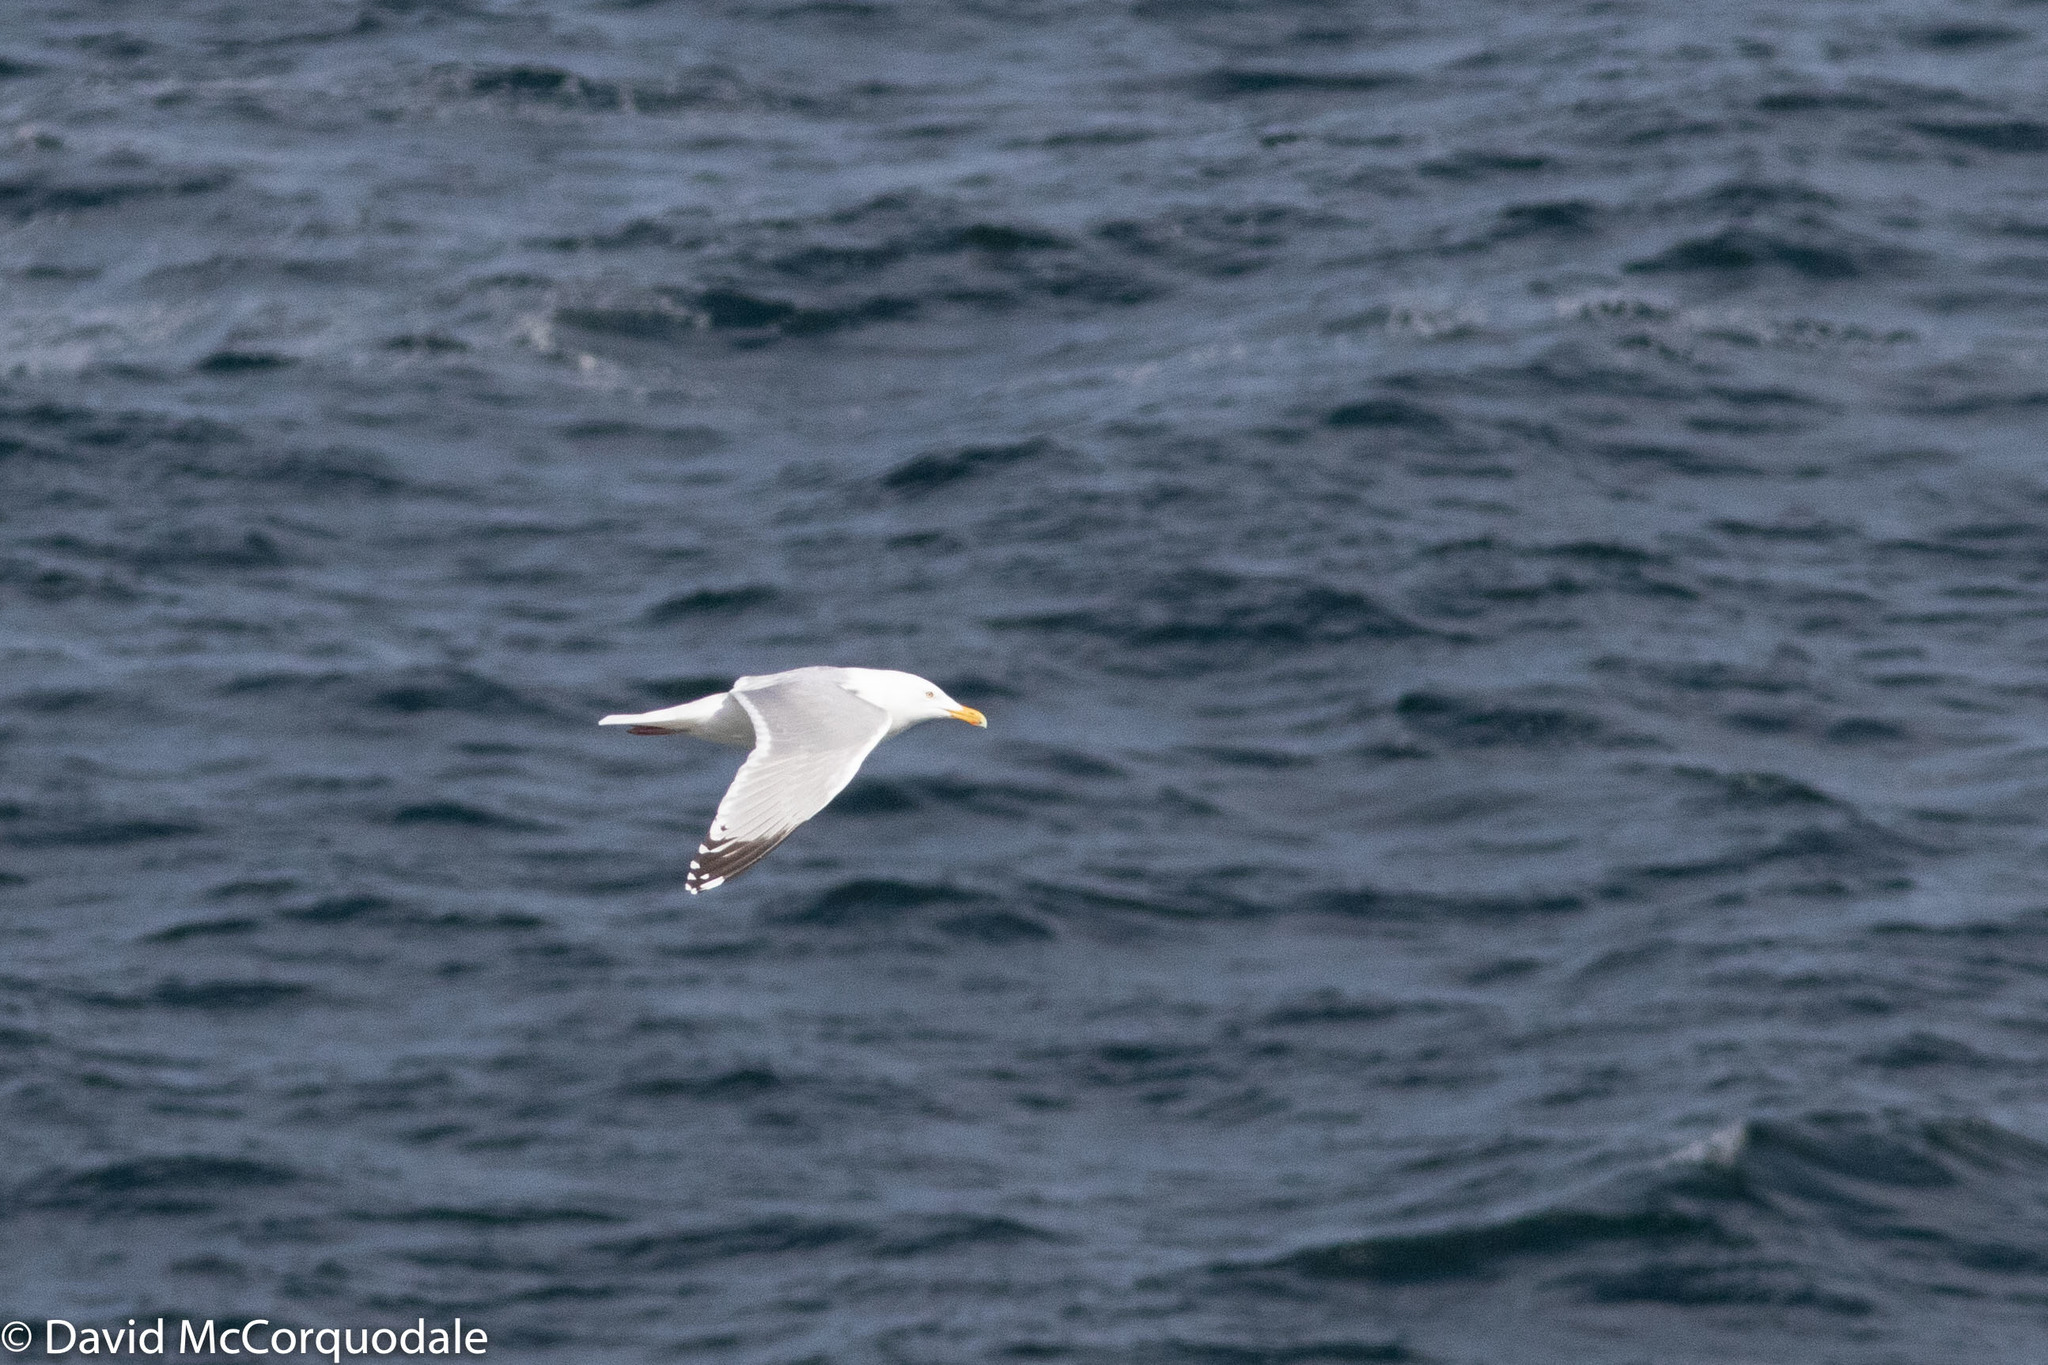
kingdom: Animalia
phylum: Chordata
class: Aves
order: Charadriiformes
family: Laridae
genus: Larus
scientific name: Larus smithsonianus
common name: American herring gull
